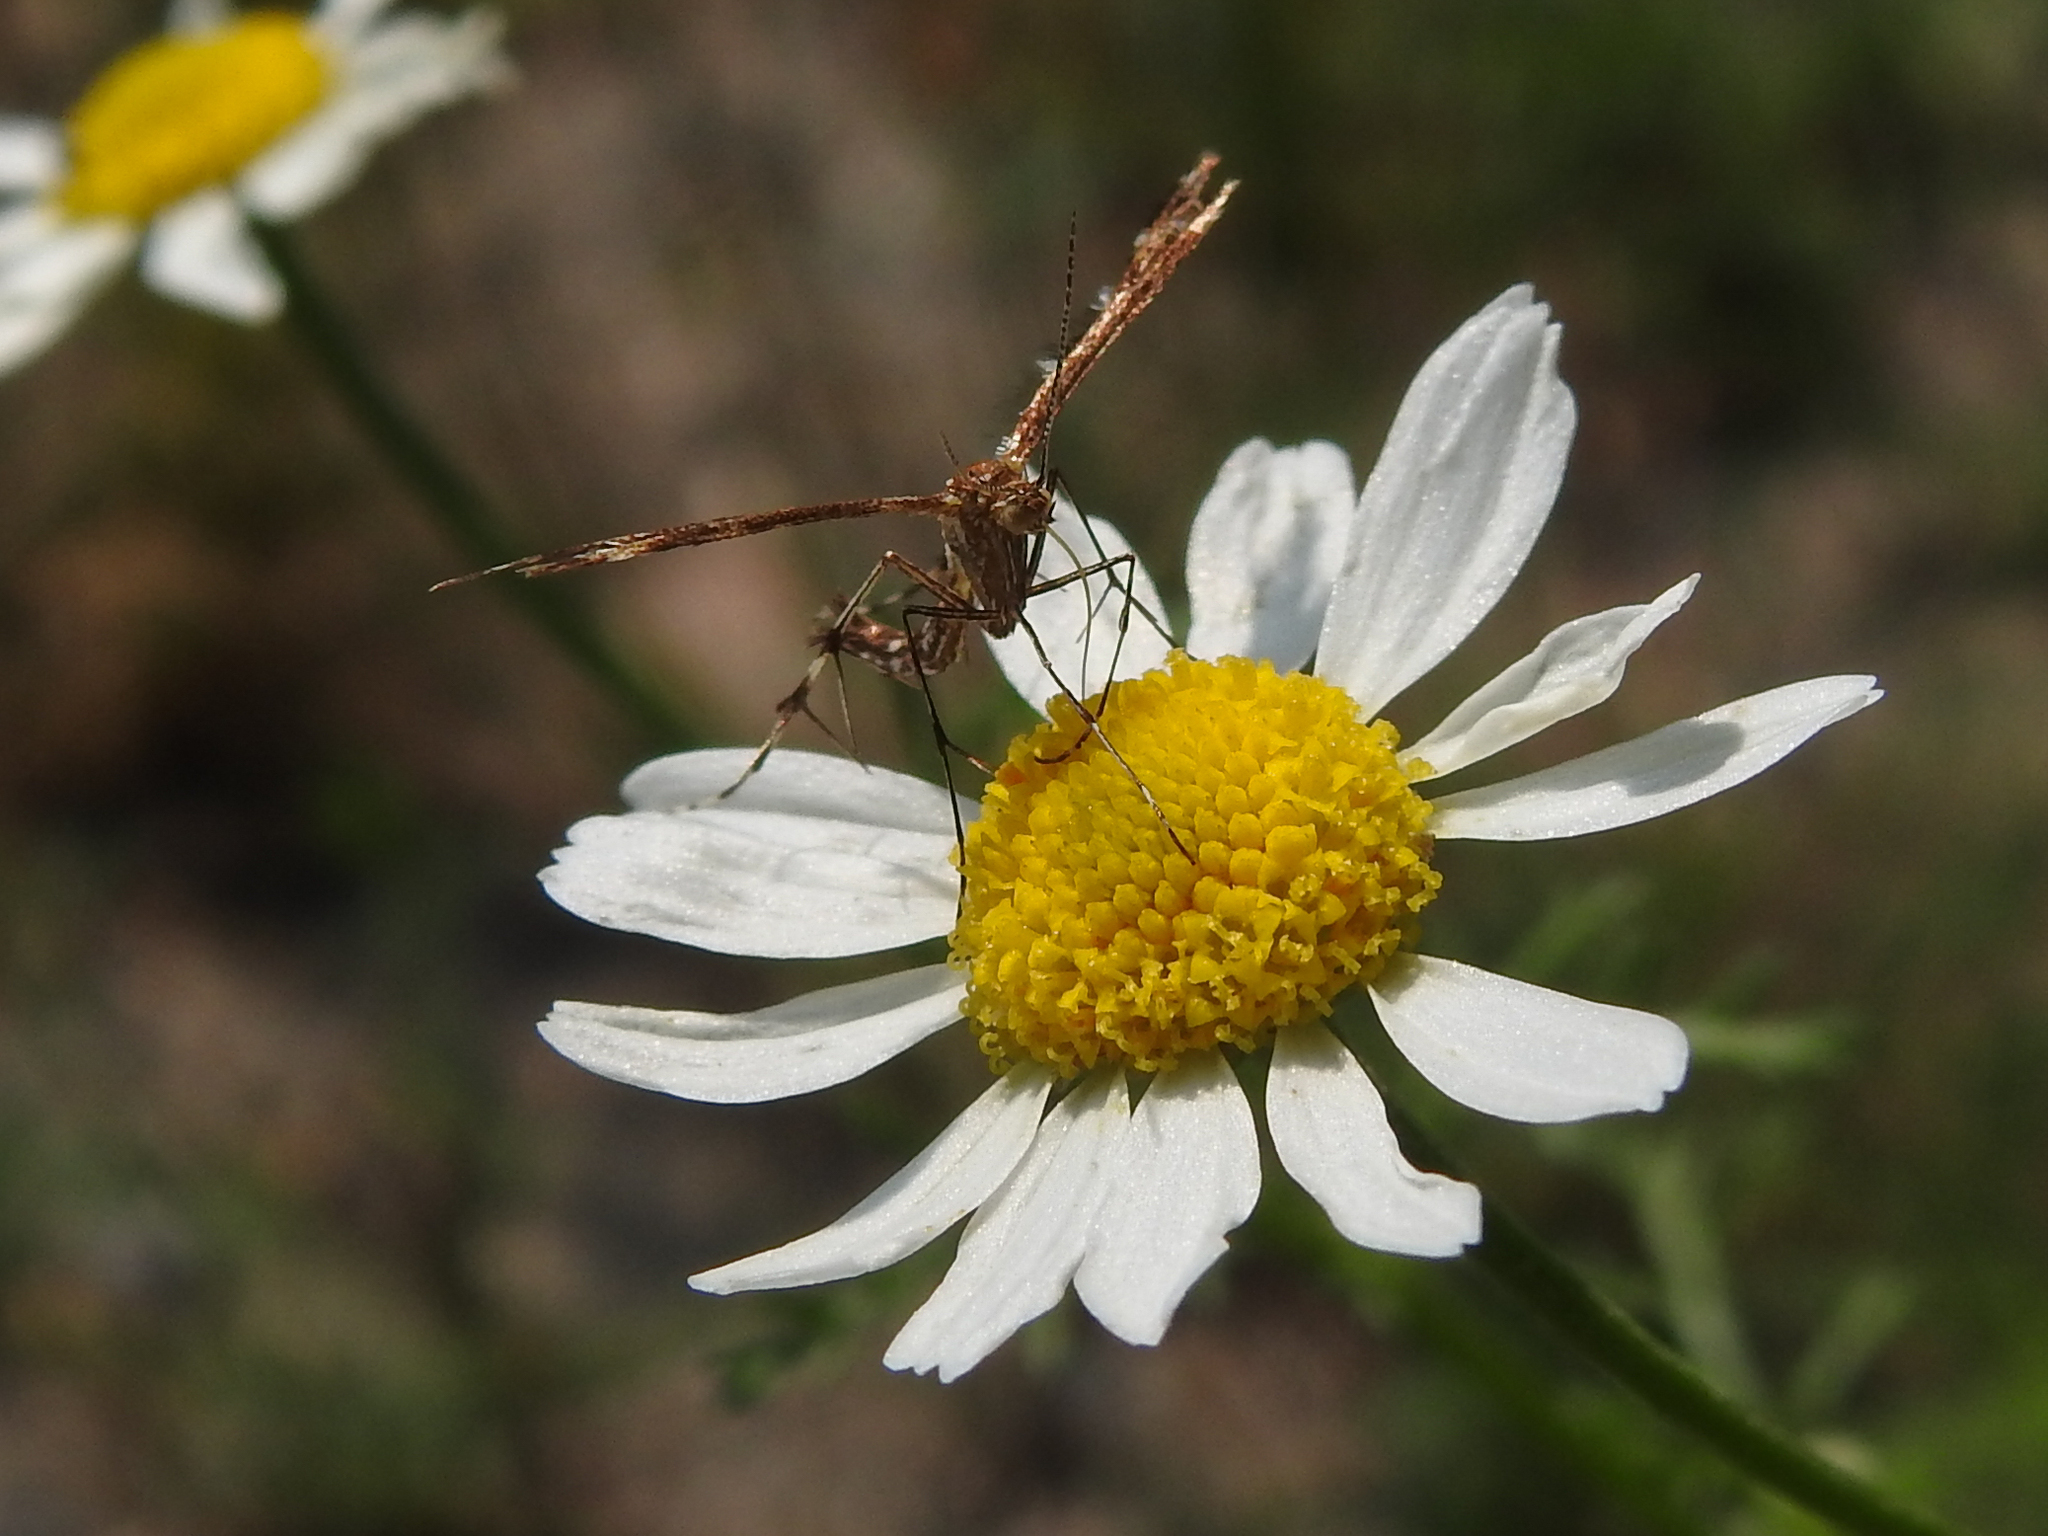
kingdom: Animalia
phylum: Arthropoda
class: Insecta
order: Lepidoptera
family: Pterophoridae
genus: Dejongia
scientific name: Dejongia lobidactylus
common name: Lobed plume moth
